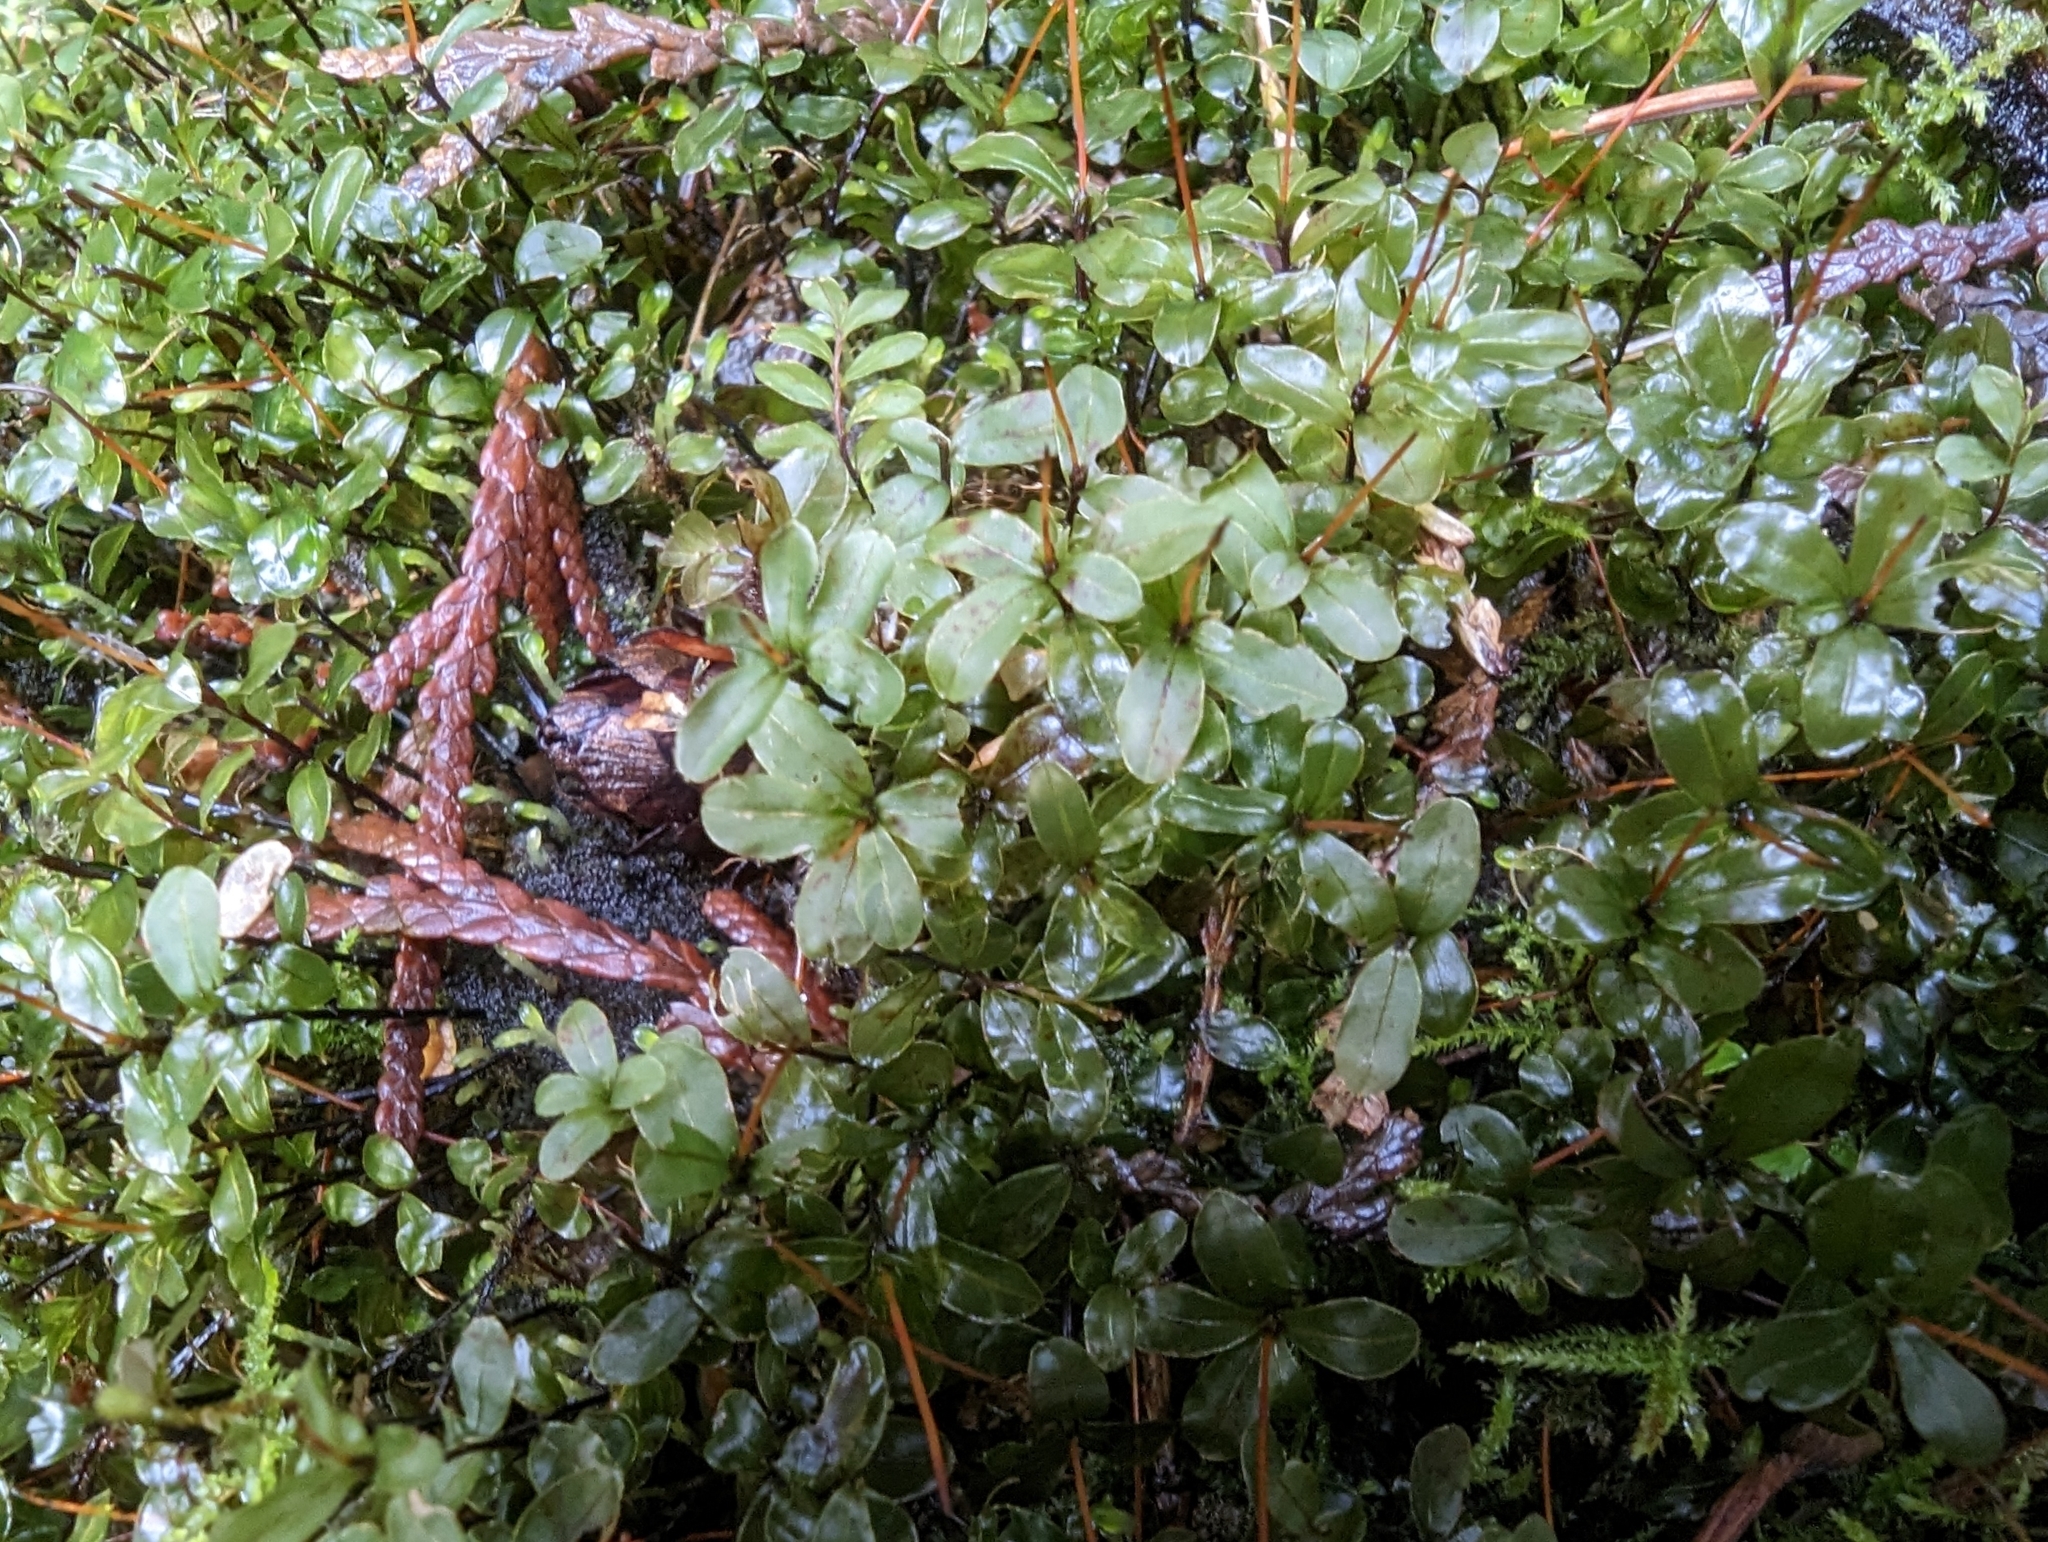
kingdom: Plantae
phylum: Bryophyta
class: Bryopsida
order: Bryales
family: Mniaceae
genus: Rhizomnium
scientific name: Rhizomnium glabrescens
